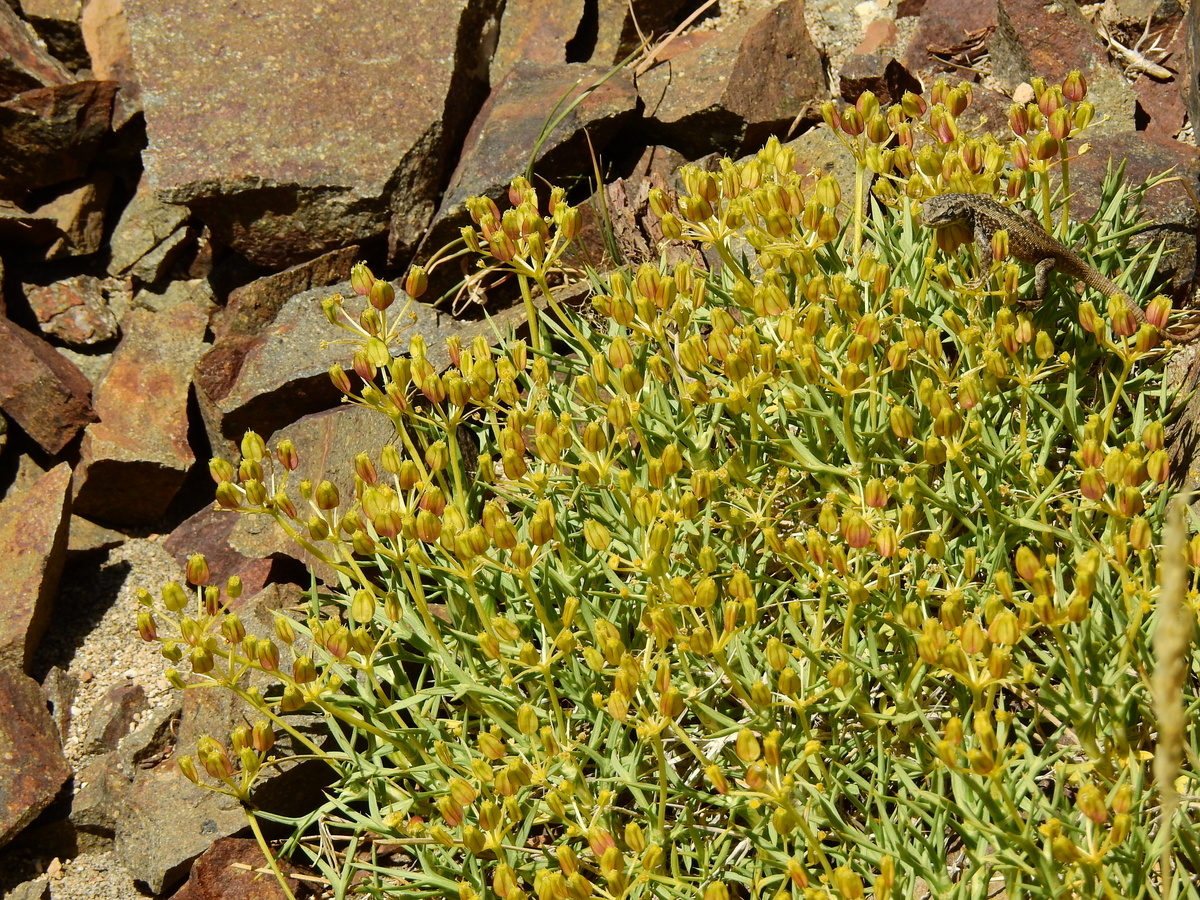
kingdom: Plantae
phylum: Tracheophyta
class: Magnoliopsida
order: Apiales
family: Apiaceae
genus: Azorella
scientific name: Azorella prolifera
